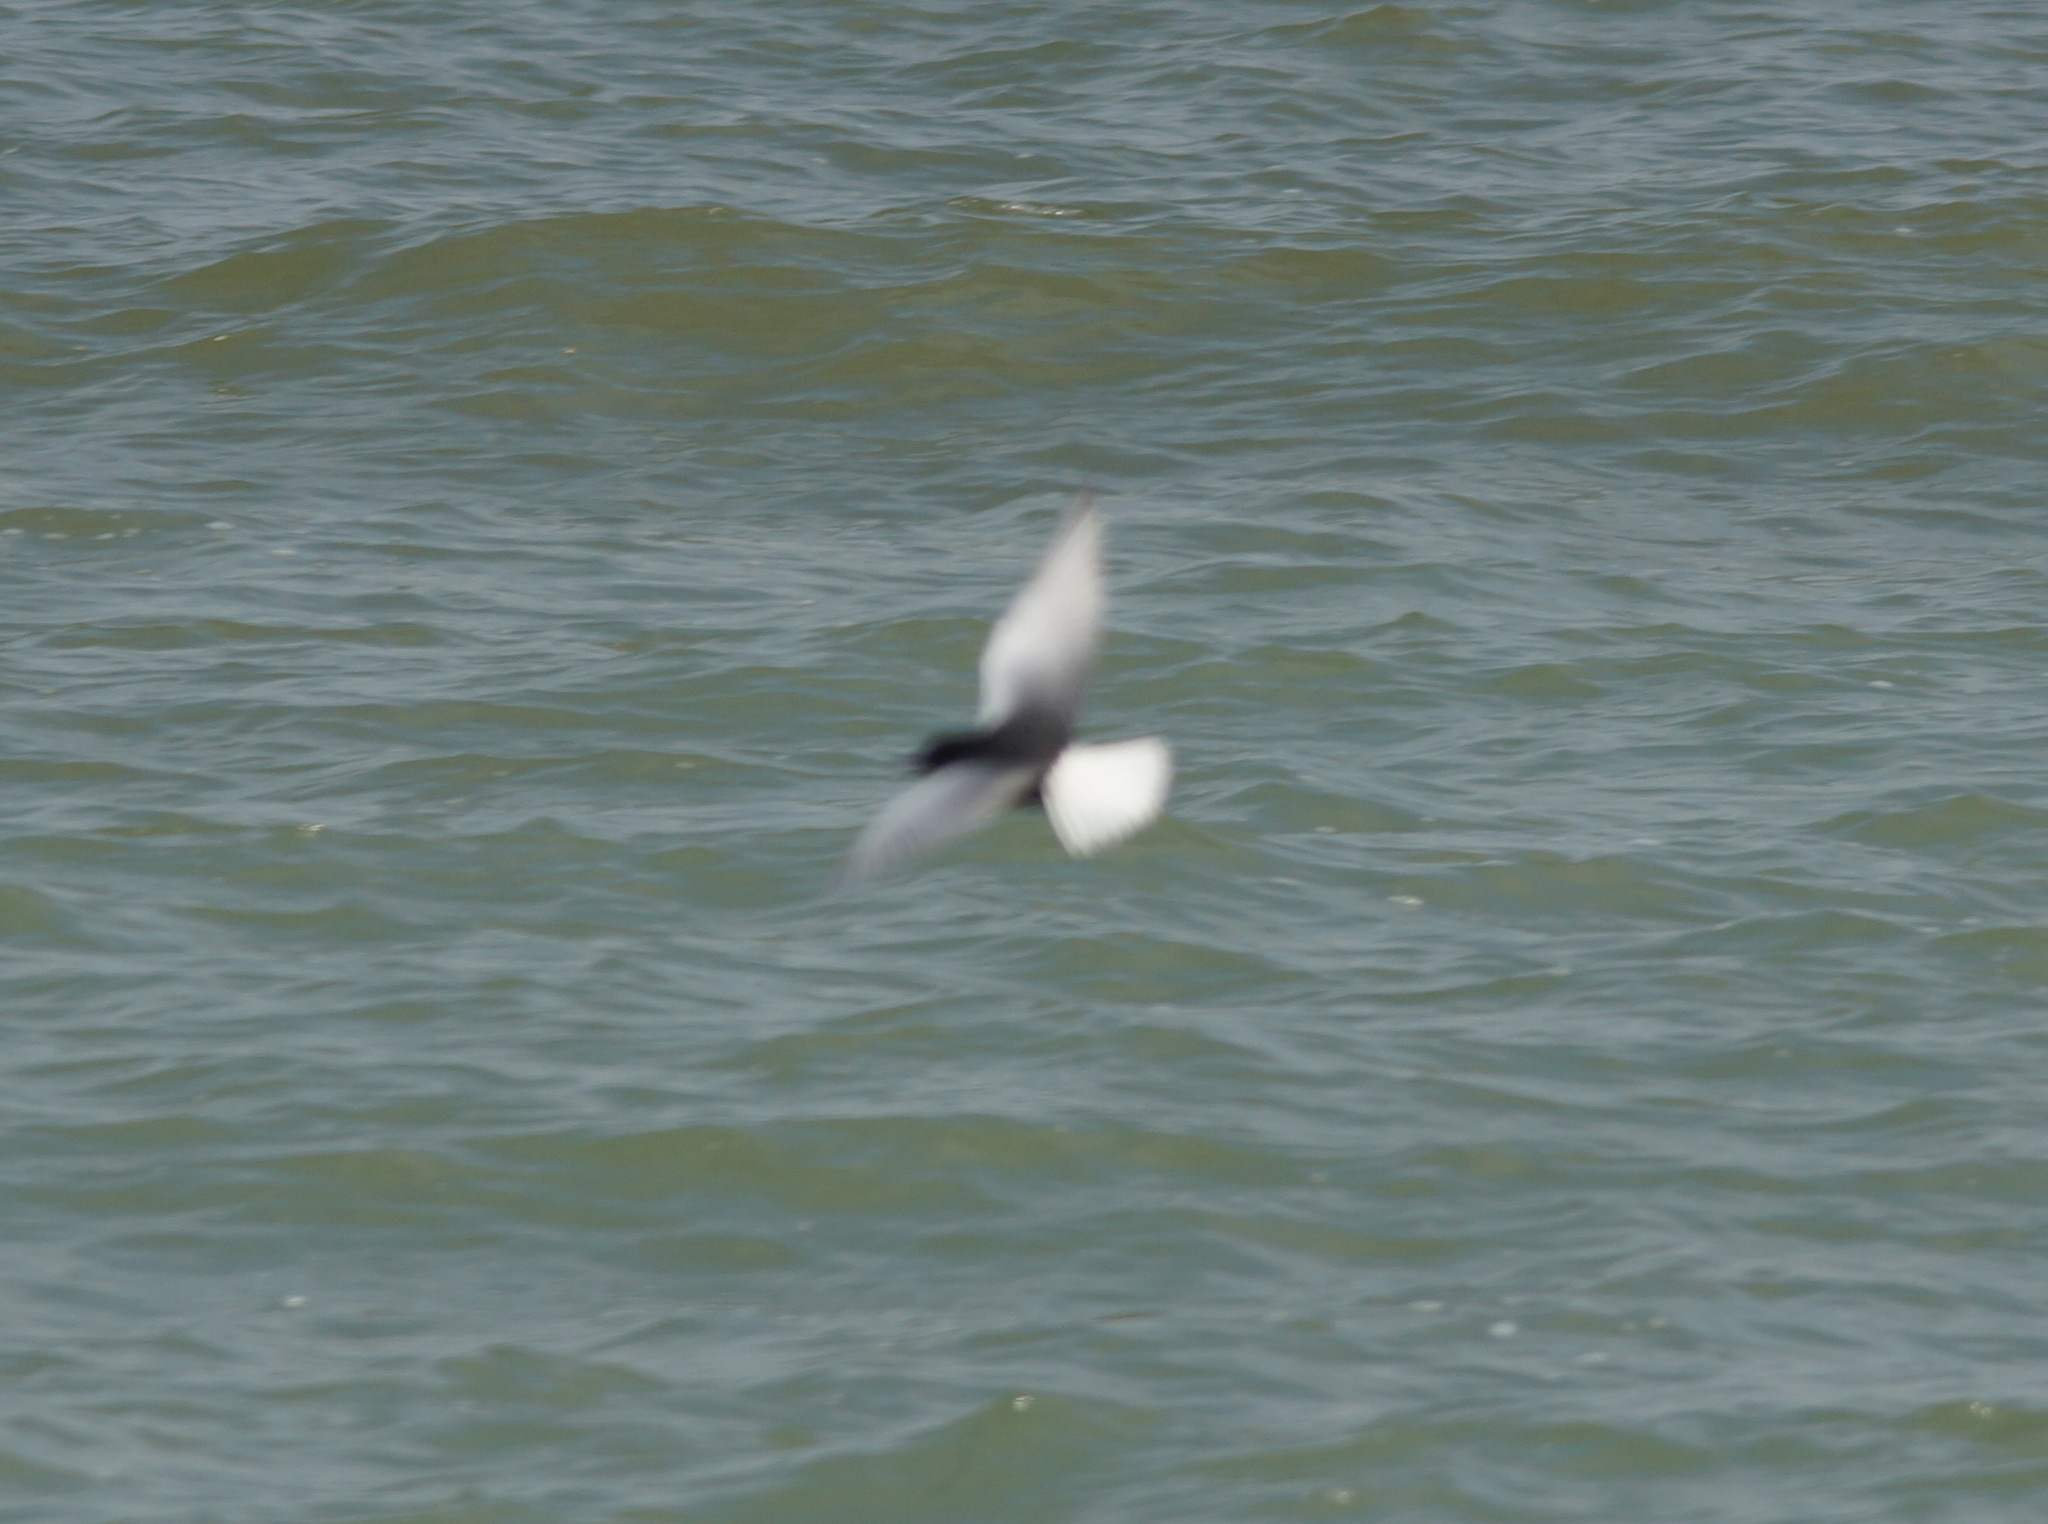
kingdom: Animalia
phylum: Chordata
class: Aves
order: Charadriiformes
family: Laridae
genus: Chlidonias
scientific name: Chlidonias leucopterus
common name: White-winged tern
